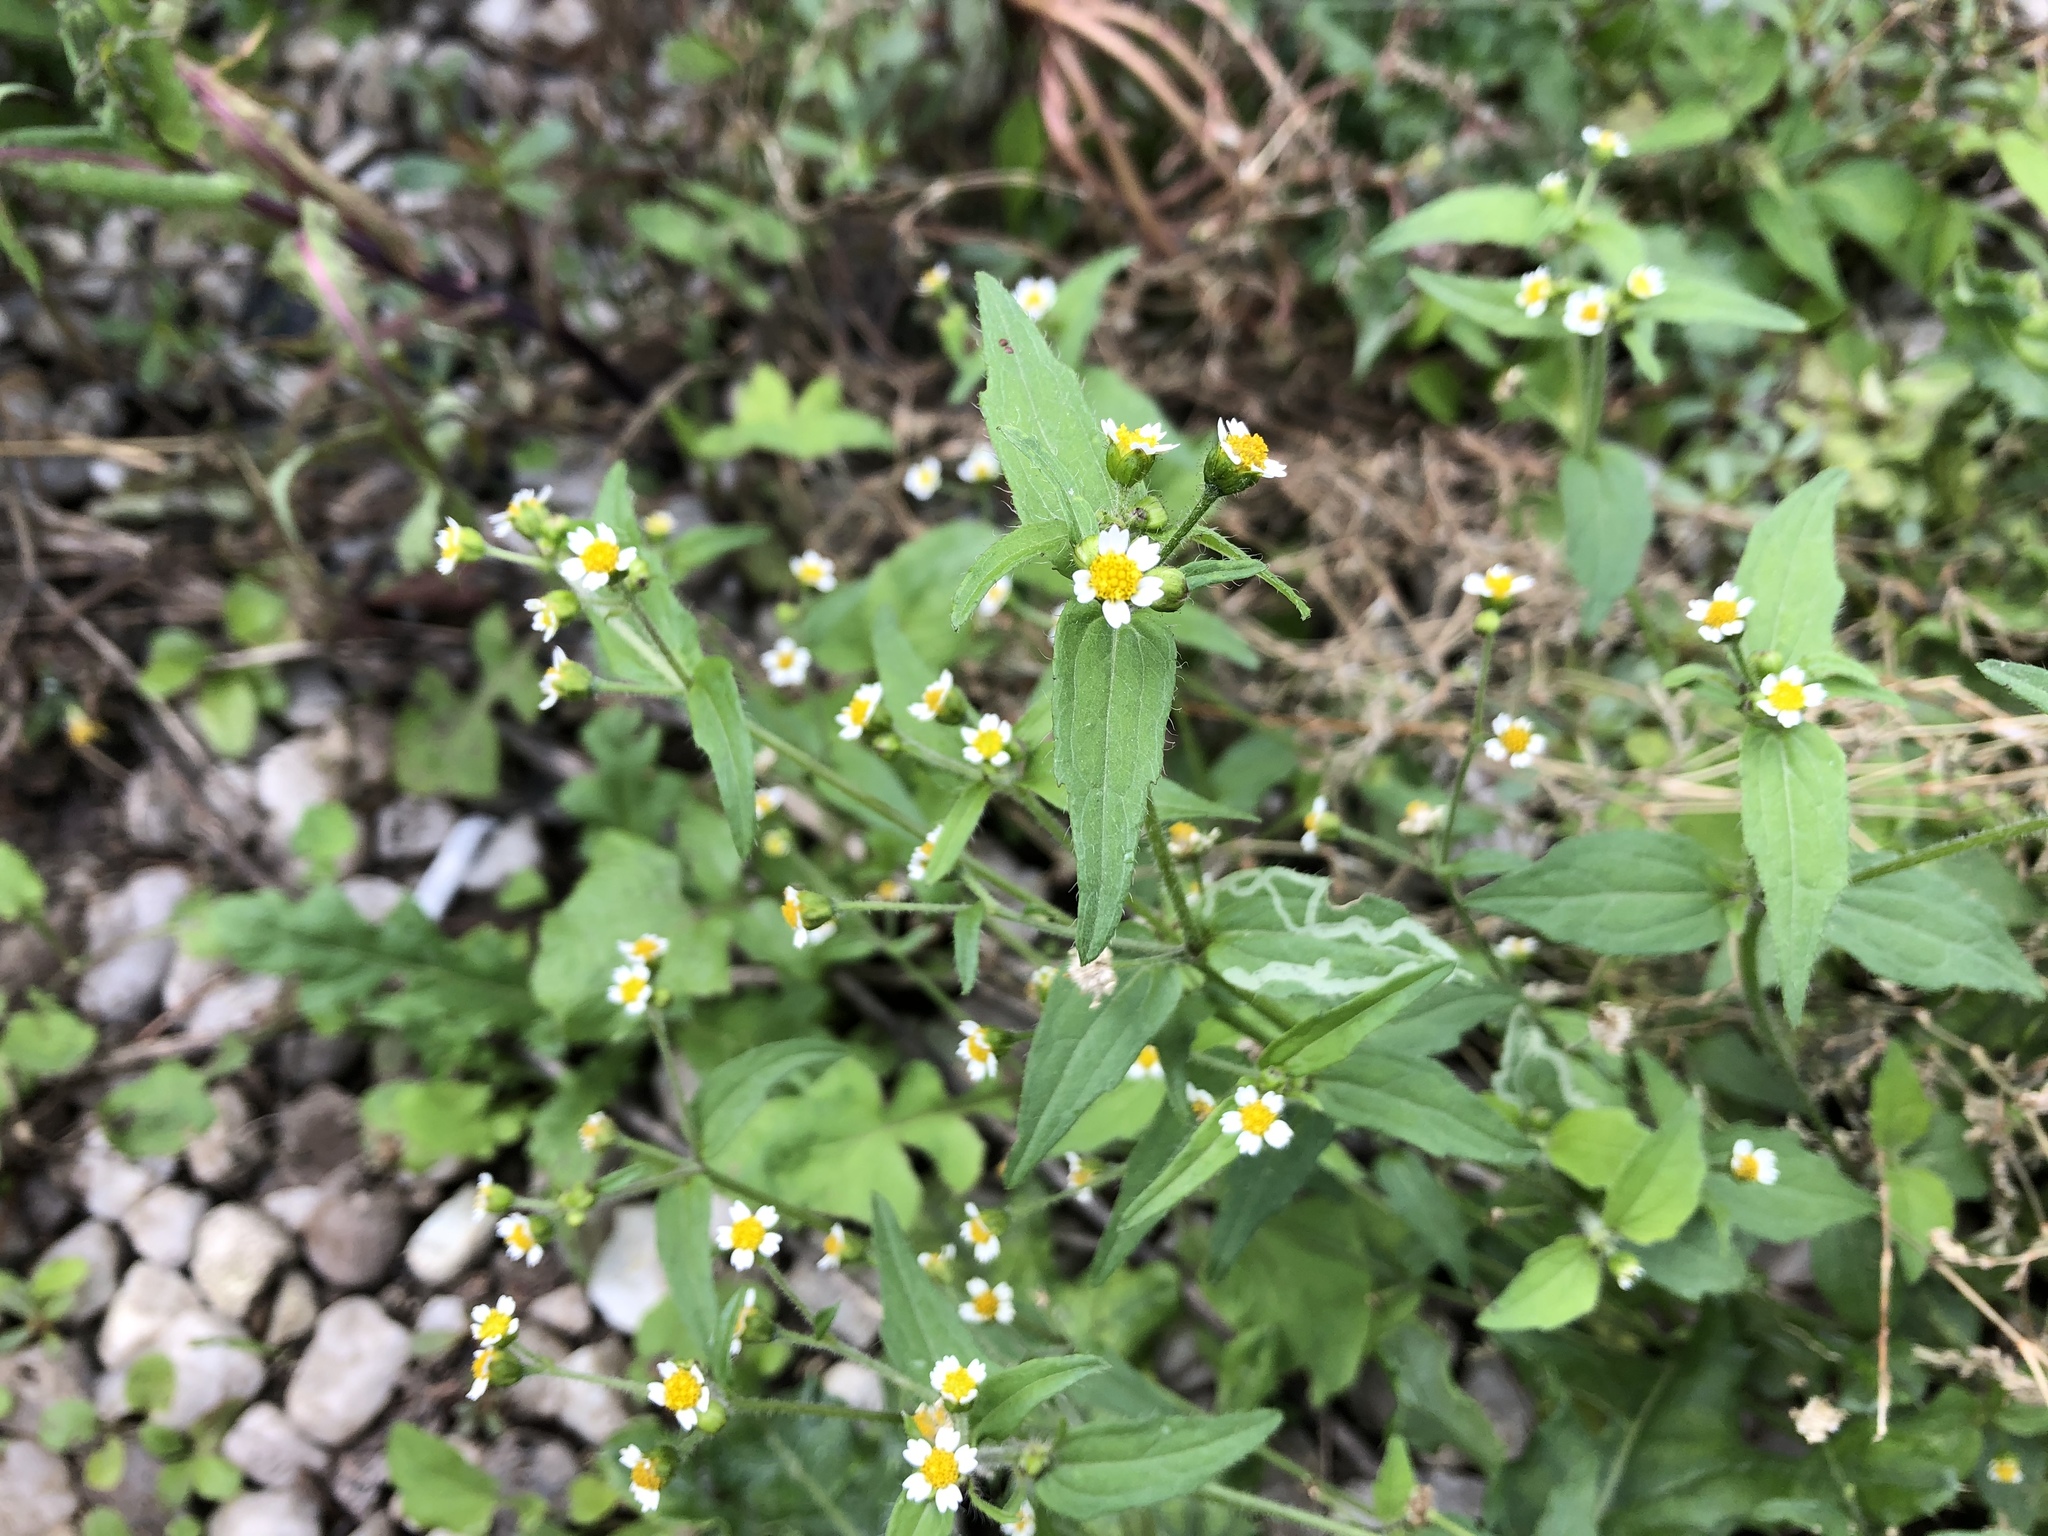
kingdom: Plantae
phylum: Tracheophyta
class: Magnoliopsida
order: Asterales
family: Asteraceae
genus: Galinsoga
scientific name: Galinsoga quadriradiata
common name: Shaggy soldier
